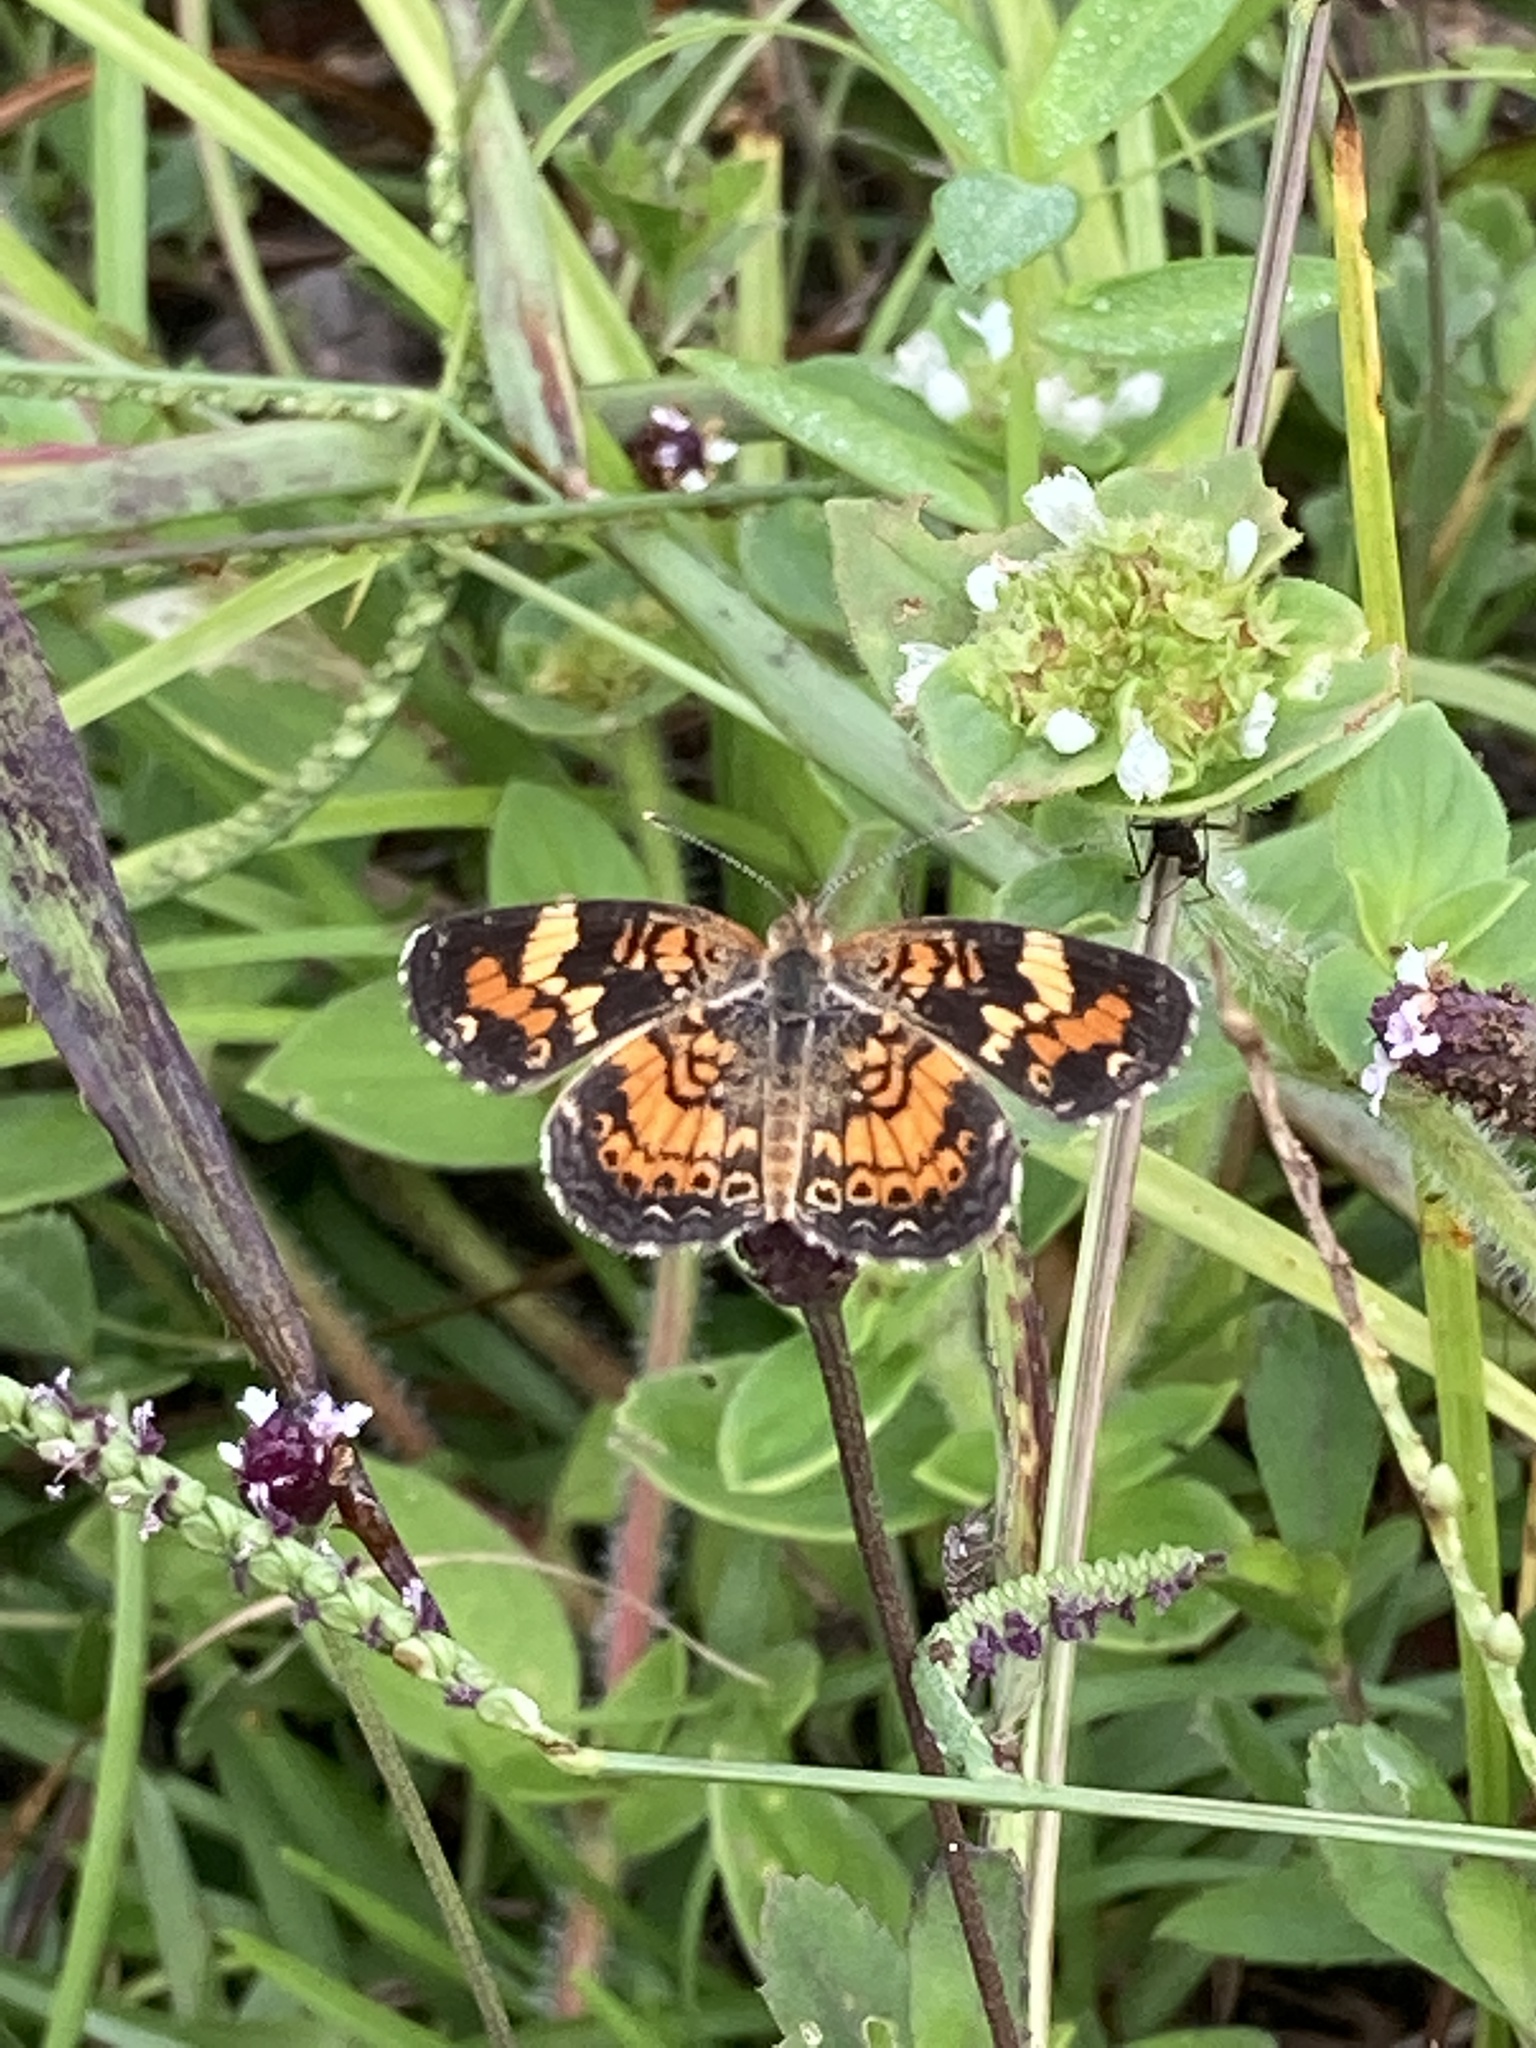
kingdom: Animalia
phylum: Arthropoda
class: Insecta
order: Lepidoptera
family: Nymphalidae
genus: Phyciodes
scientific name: Phyciodes phaon
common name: Phaon crescent
